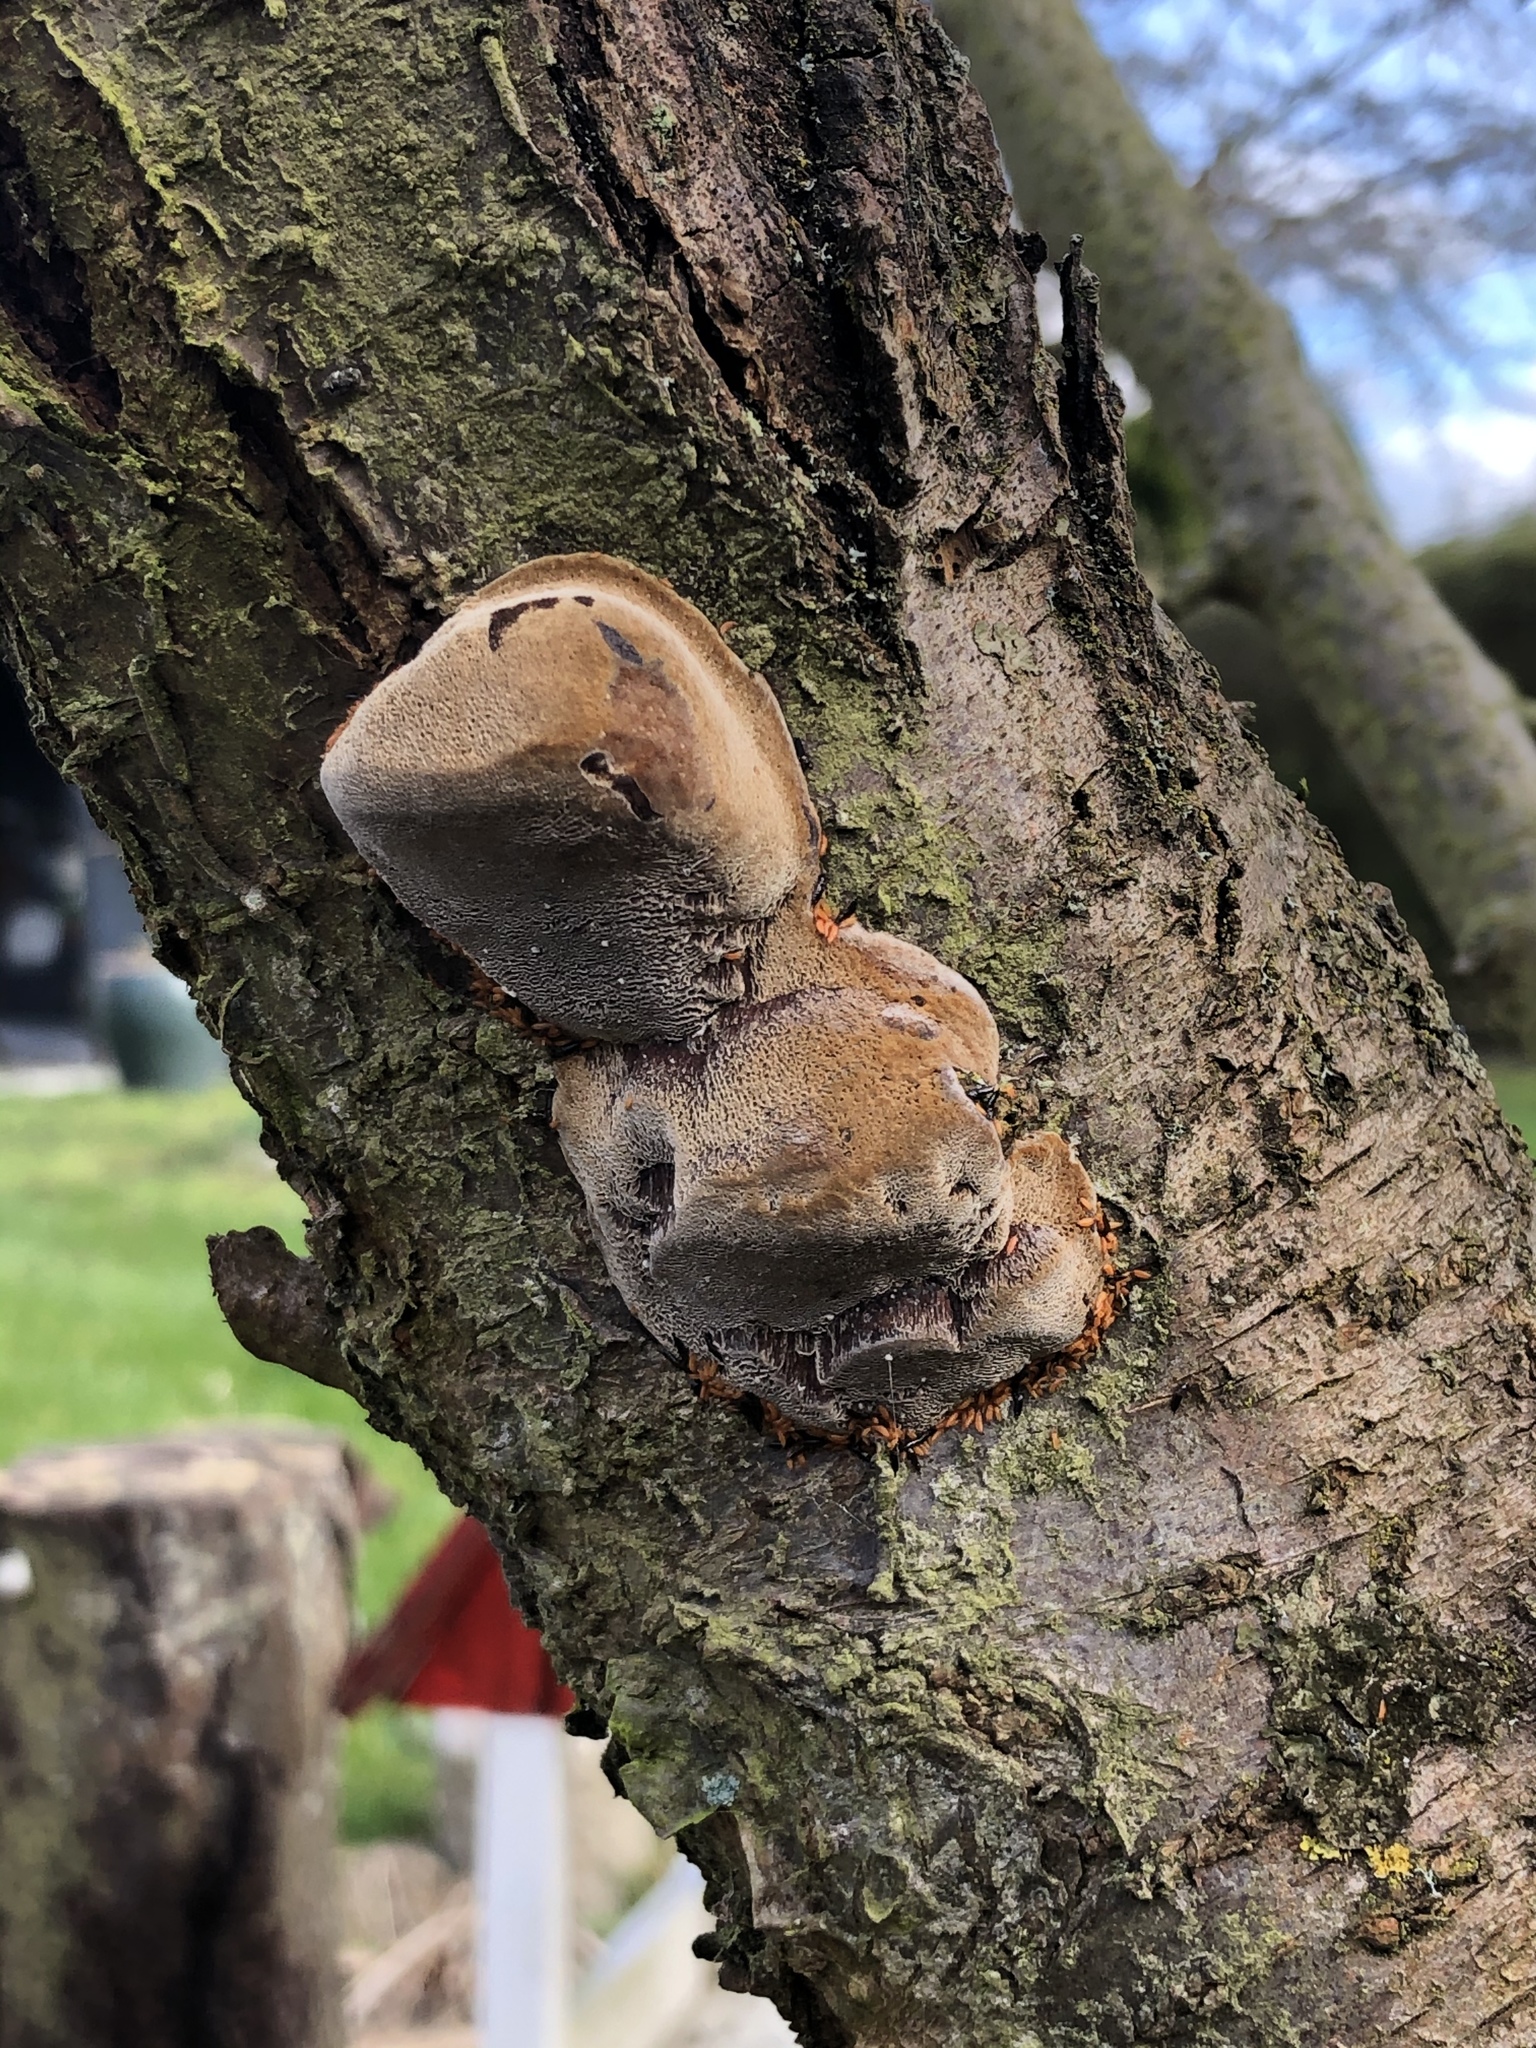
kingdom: Fungi
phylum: Basidiomycota
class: Agaricomycetes
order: Hymenochaetales
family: Hymenochaetaceae
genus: Phellinus
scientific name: Phellinus pomaceus
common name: Cushion bracket
